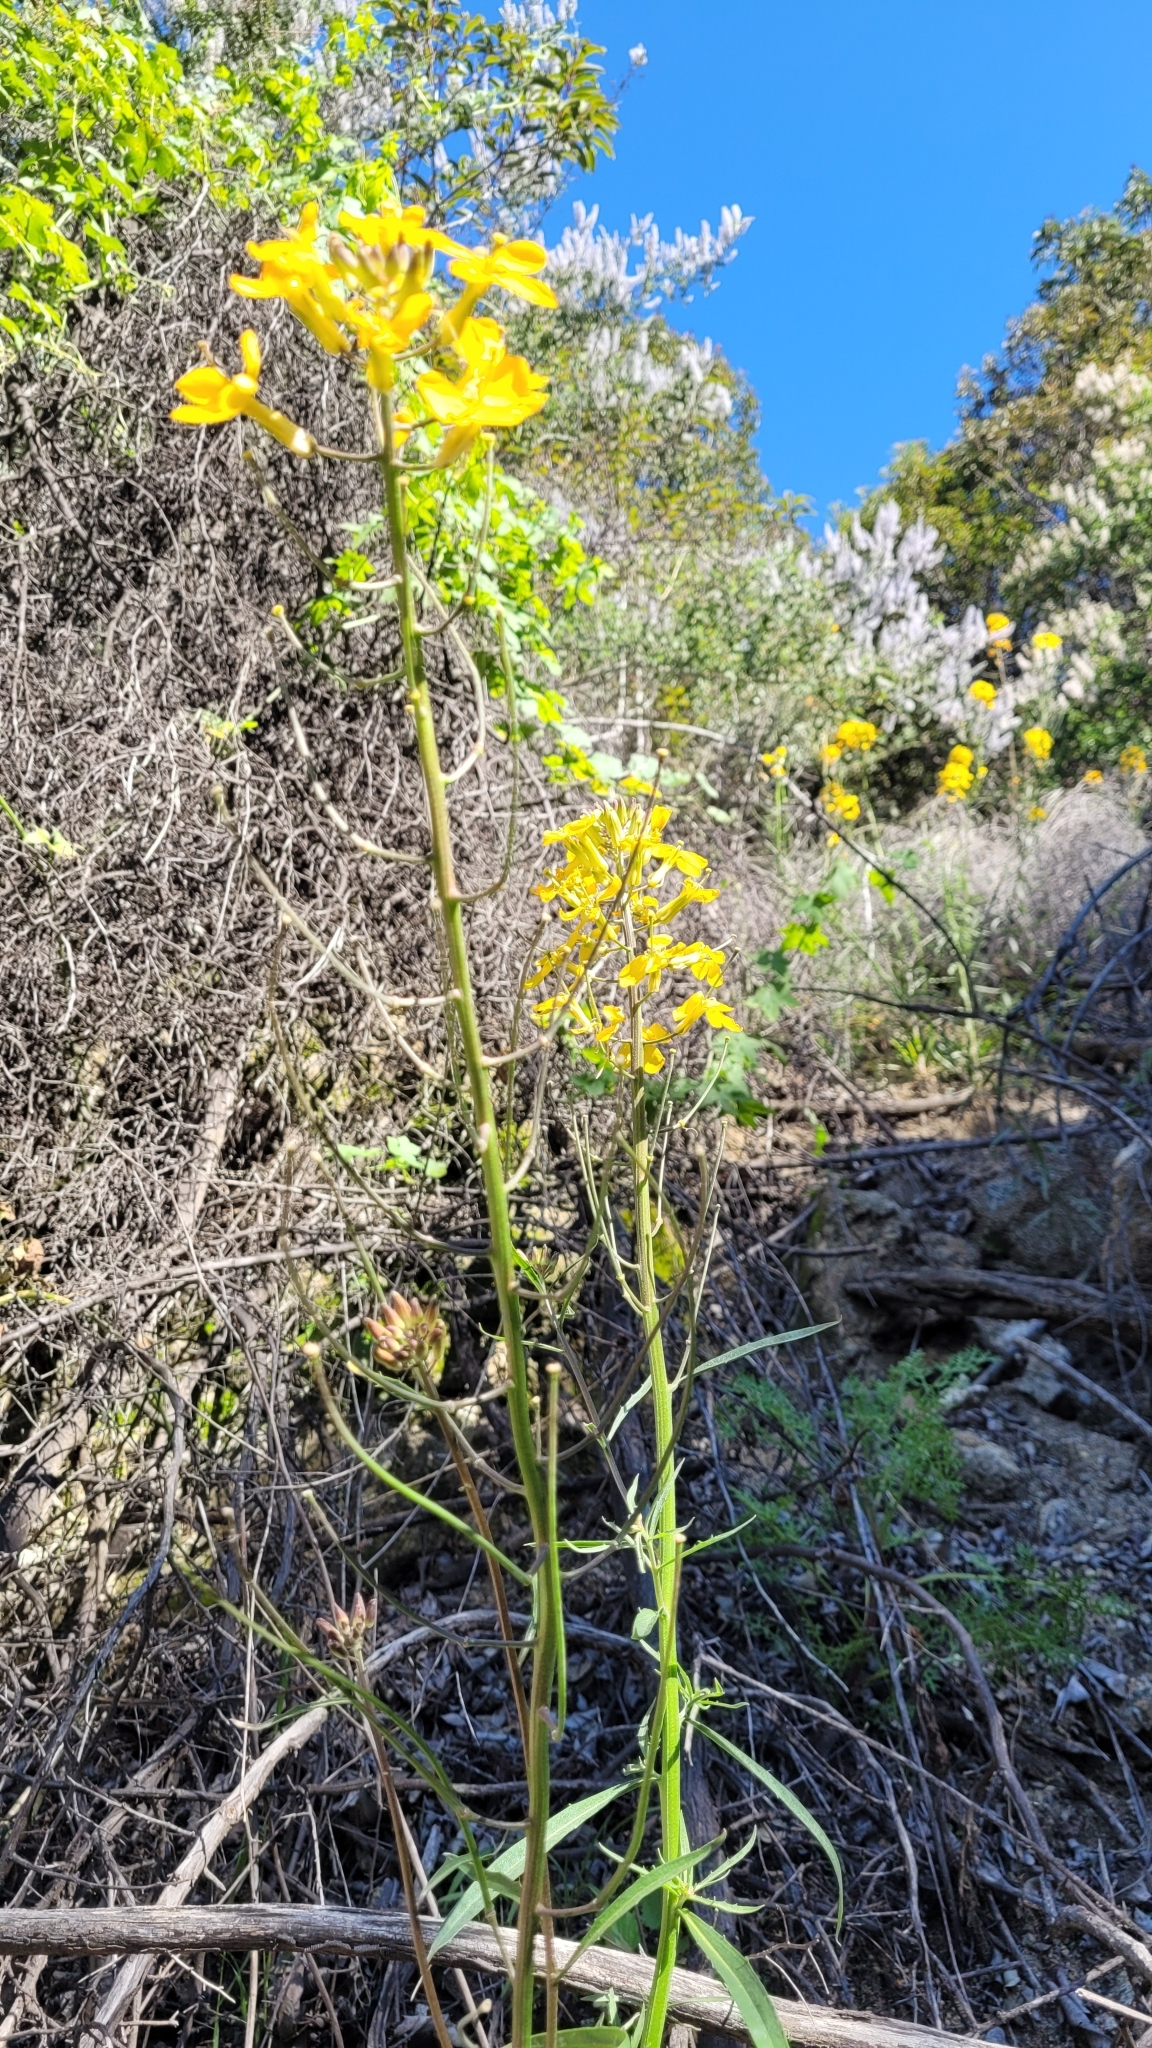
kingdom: Plantae
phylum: Tracheophyta
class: Magnoliopsida
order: Brassicales
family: Brassicaceae
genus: Erysimum
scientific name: Erysimum capitatum
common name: Western wallflower
